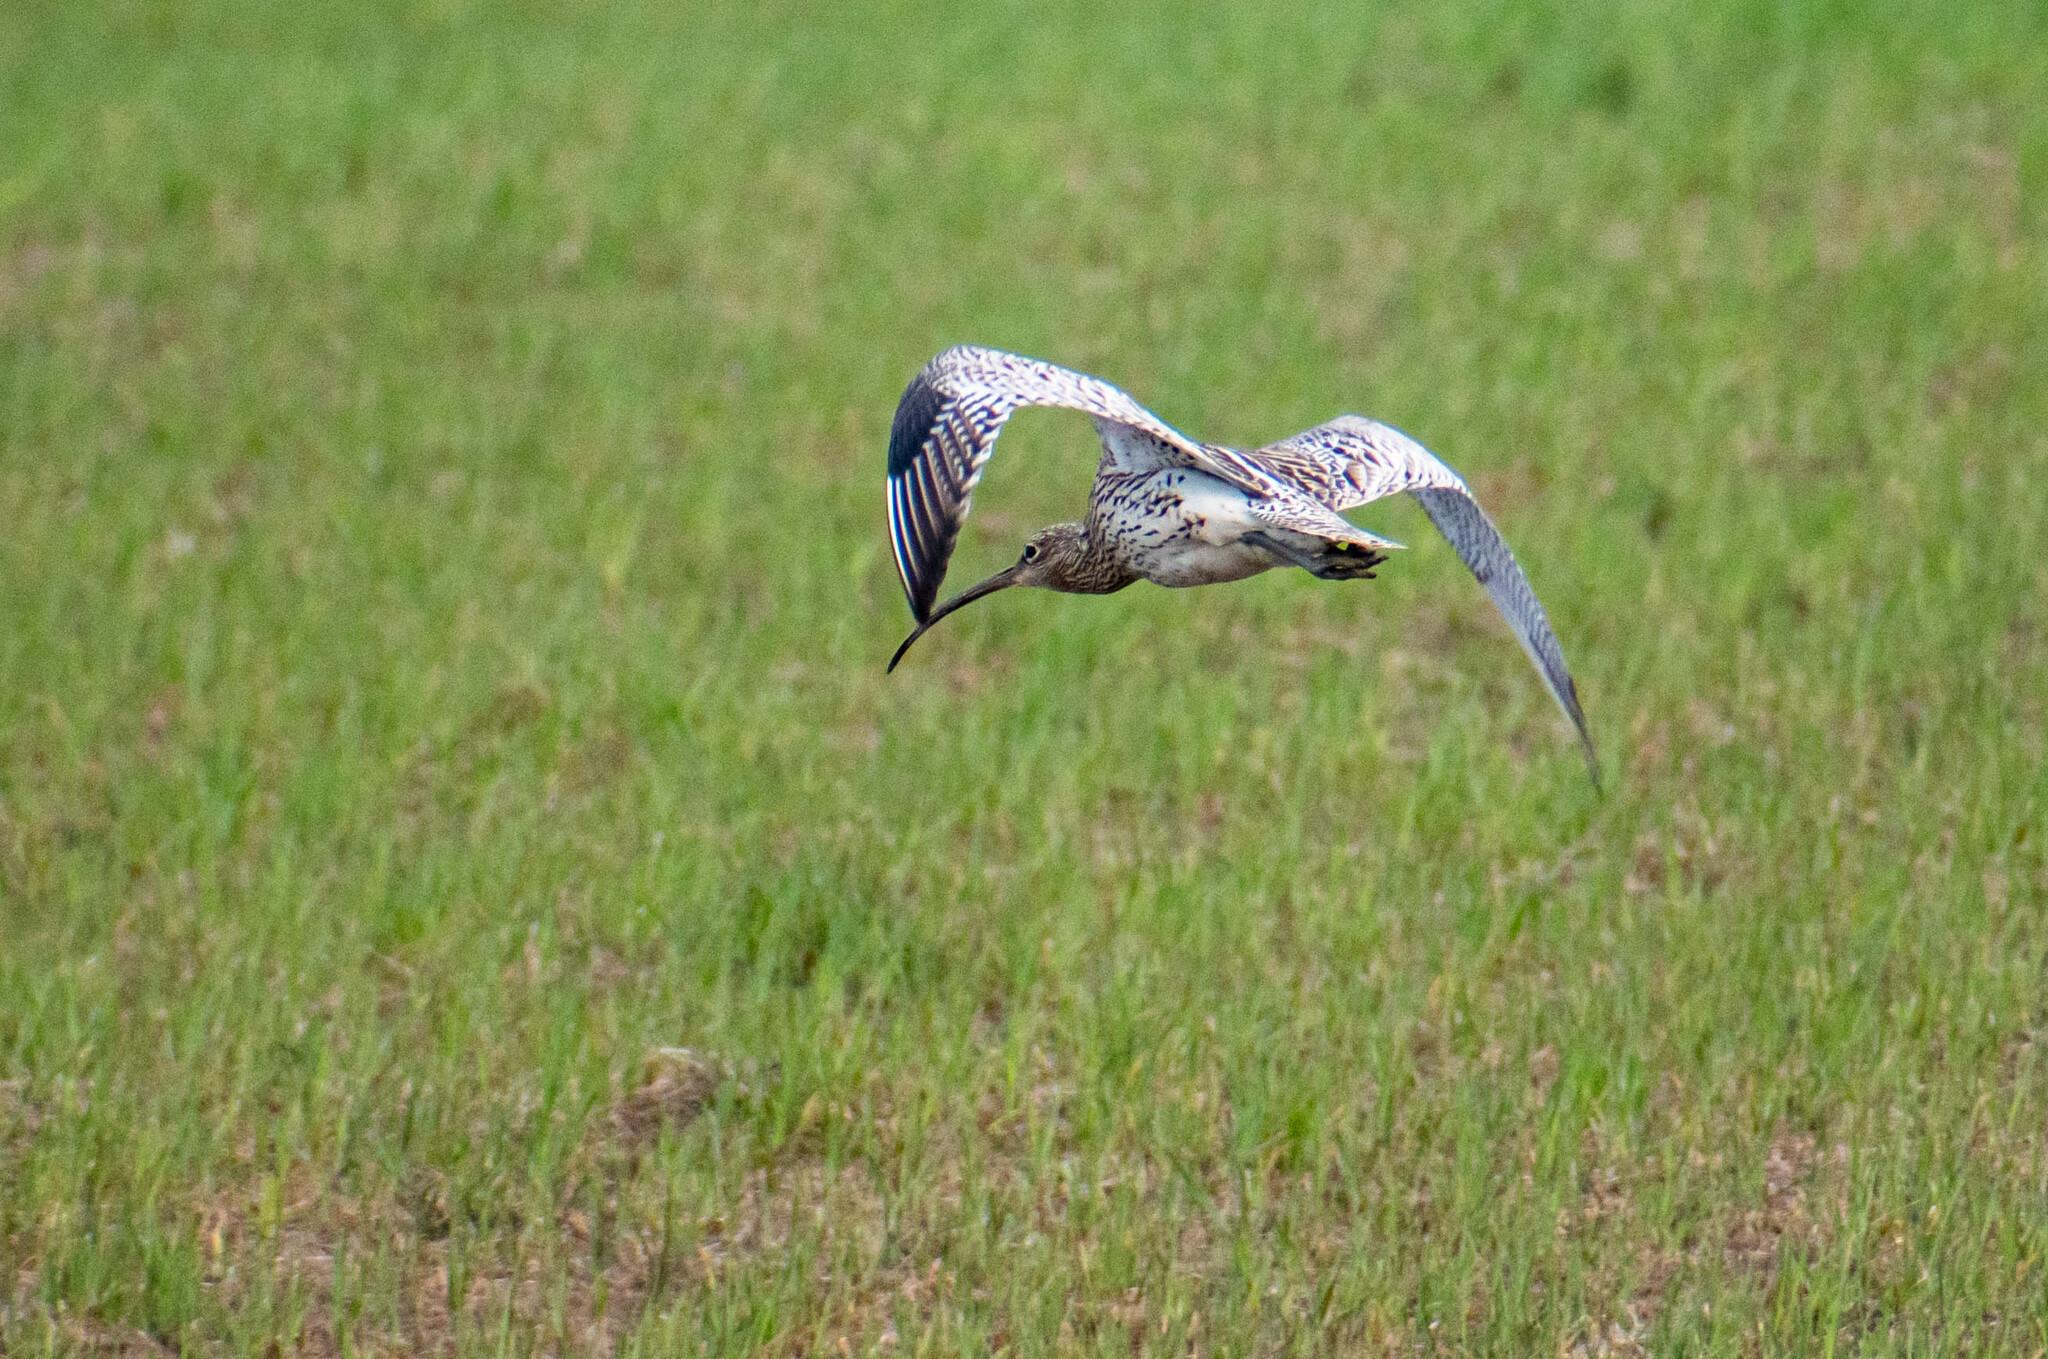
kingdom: Animalia
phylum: Chordata
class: Aves
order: Charadriiformes
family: Scolopacidae
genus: Numenius
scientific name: Numenius arquata
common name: Eurasian curlew
